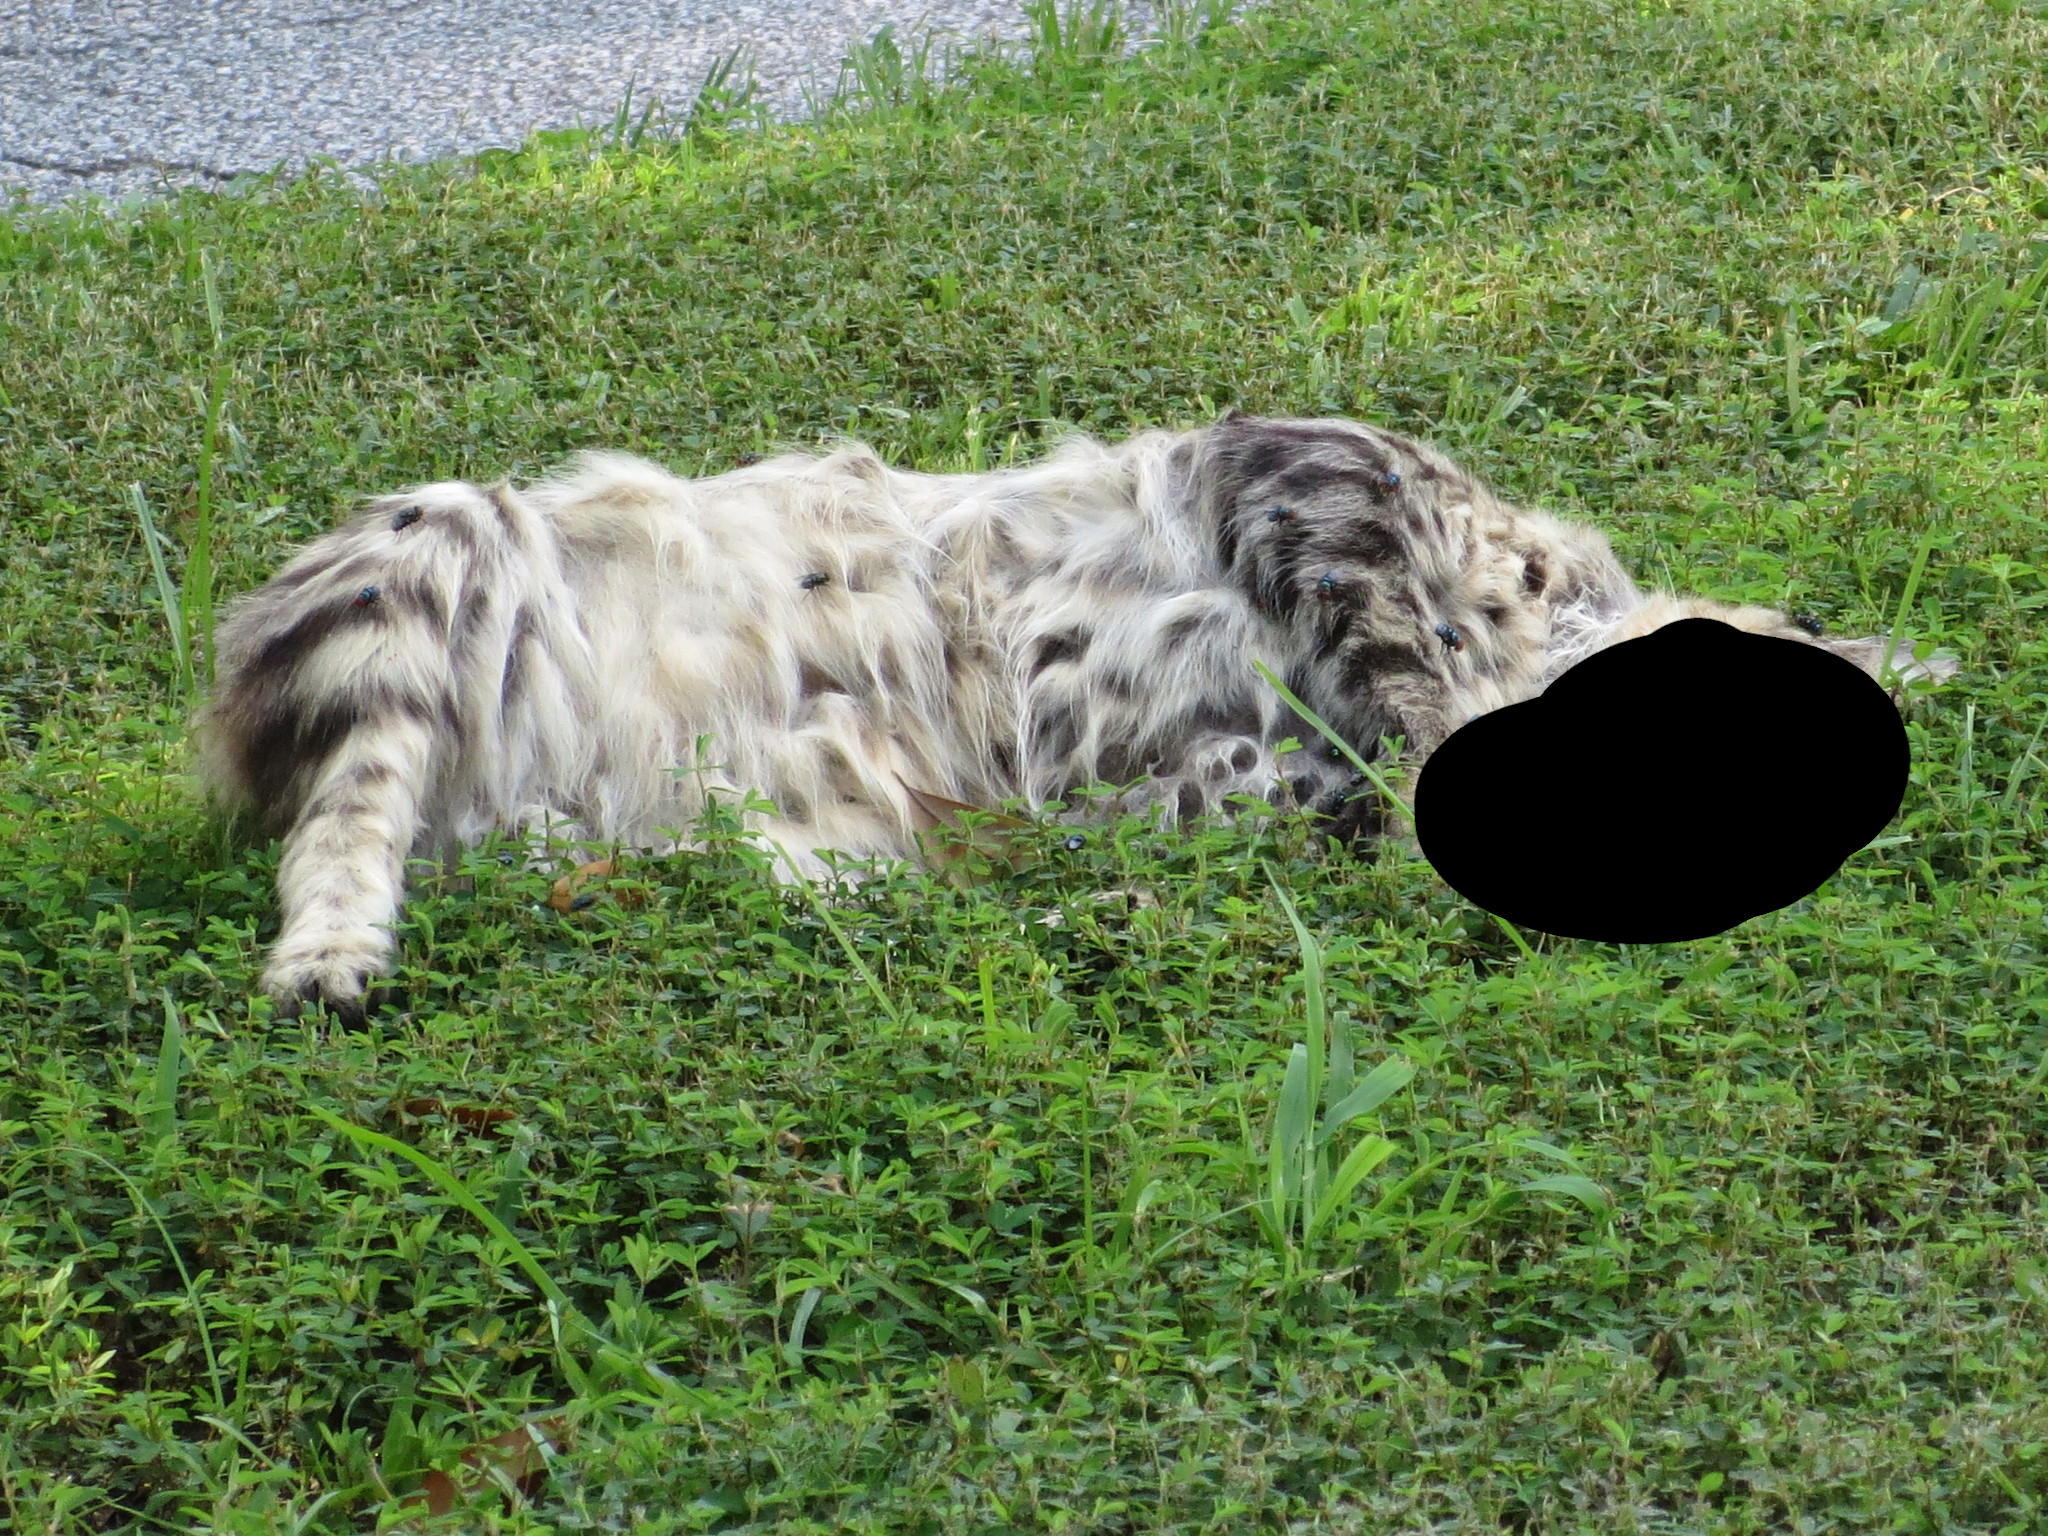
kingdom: Animalia
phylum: Chordata
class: Mammalia
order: Carnivora
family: Felidae
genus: Felis
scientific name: Felis catus
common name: Domestic cat
